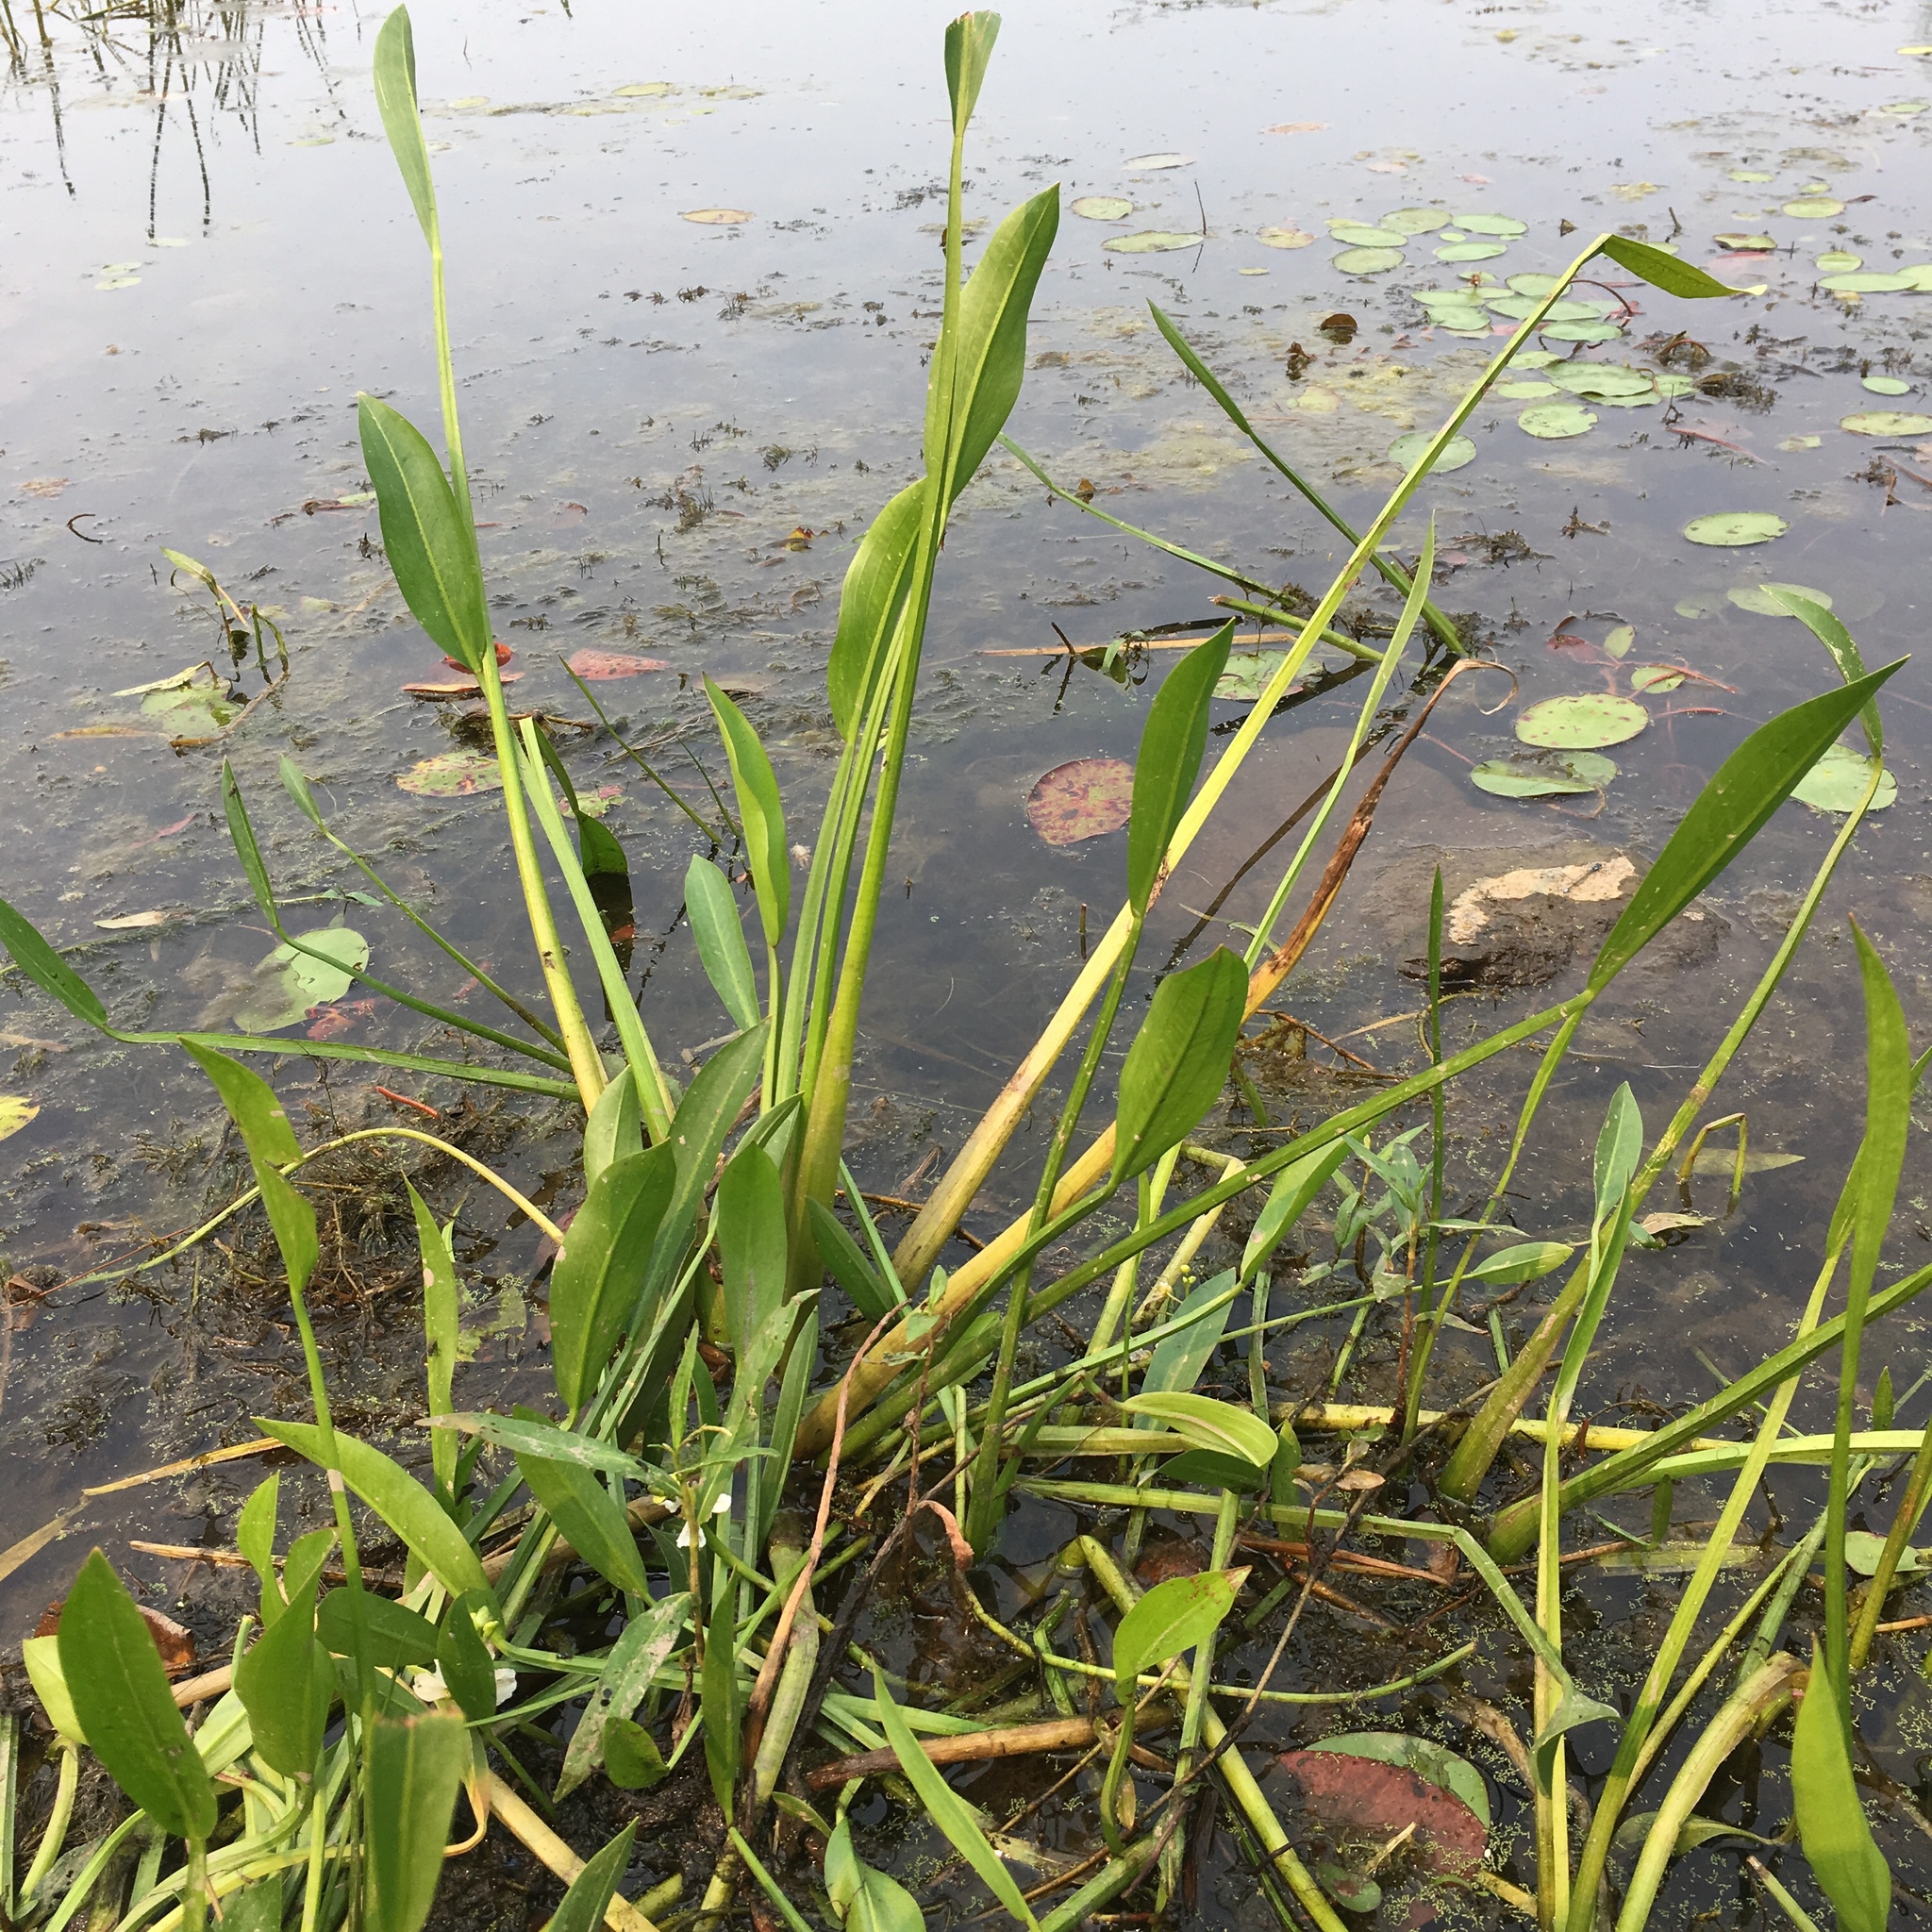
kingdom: Plantae
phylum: Tracheophyta
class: Liliopsida
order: Alismatales
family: Alismataceae
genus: Sagittaria
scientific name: Sagittaria rigida
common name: Canadian arrowhead
